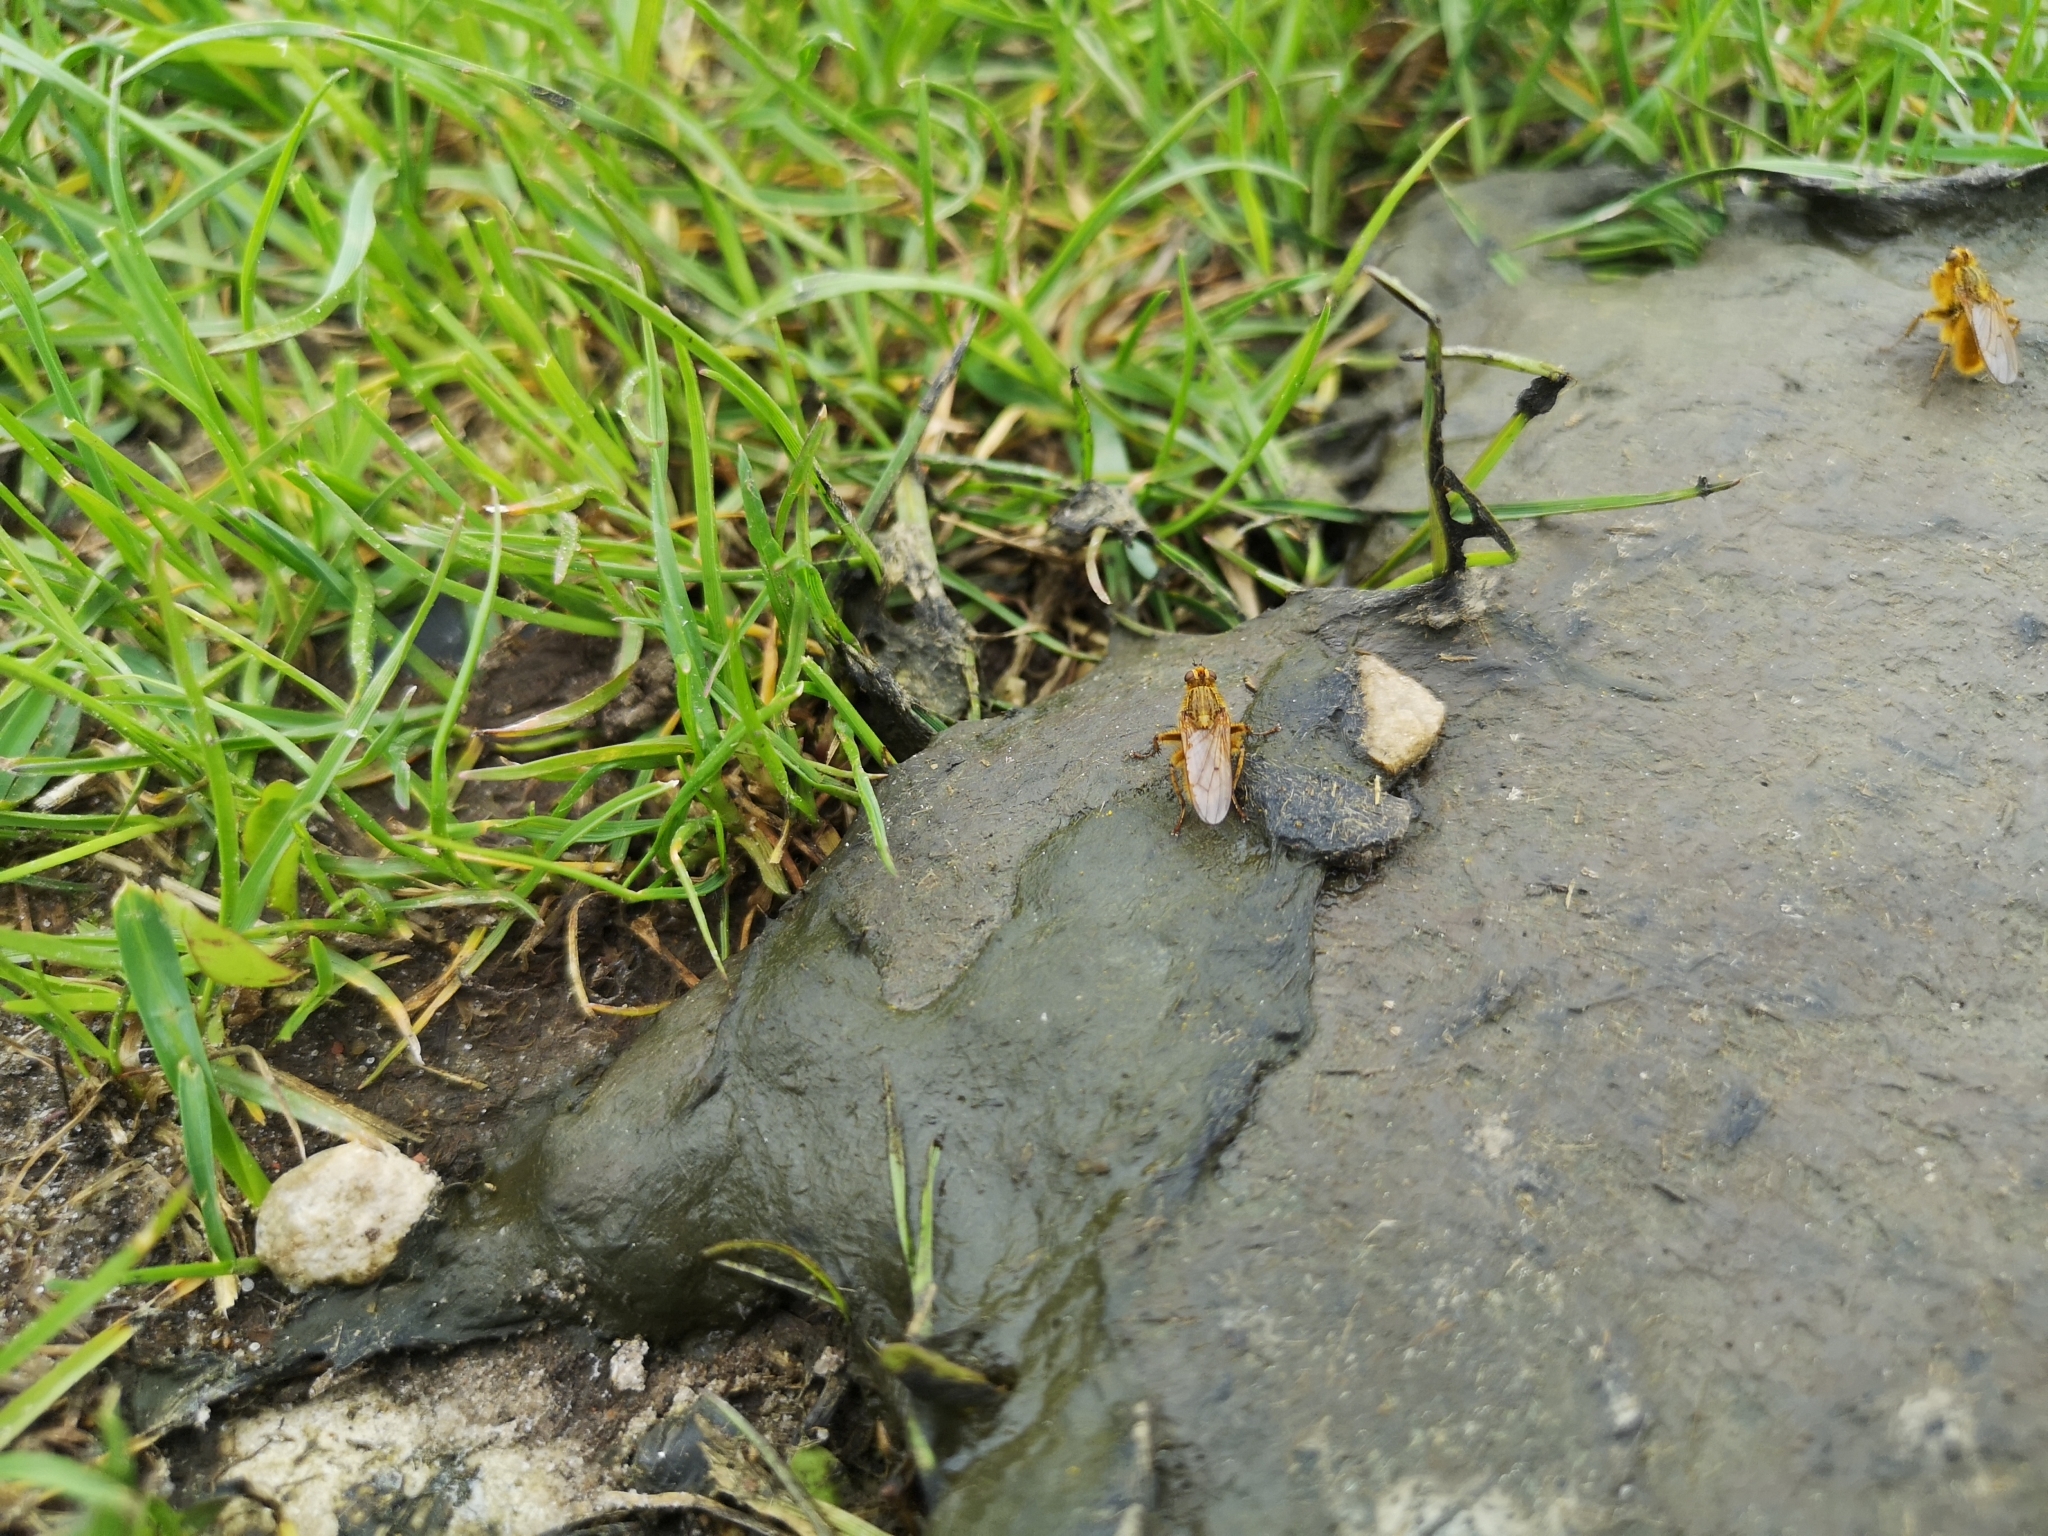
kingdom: Animalia
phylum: Arthropoda
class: Insecta
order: Diptera
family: Scathophagidae
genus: Scathophaga
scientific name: Scathophaga stercoraria
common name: Yellow dung fly
